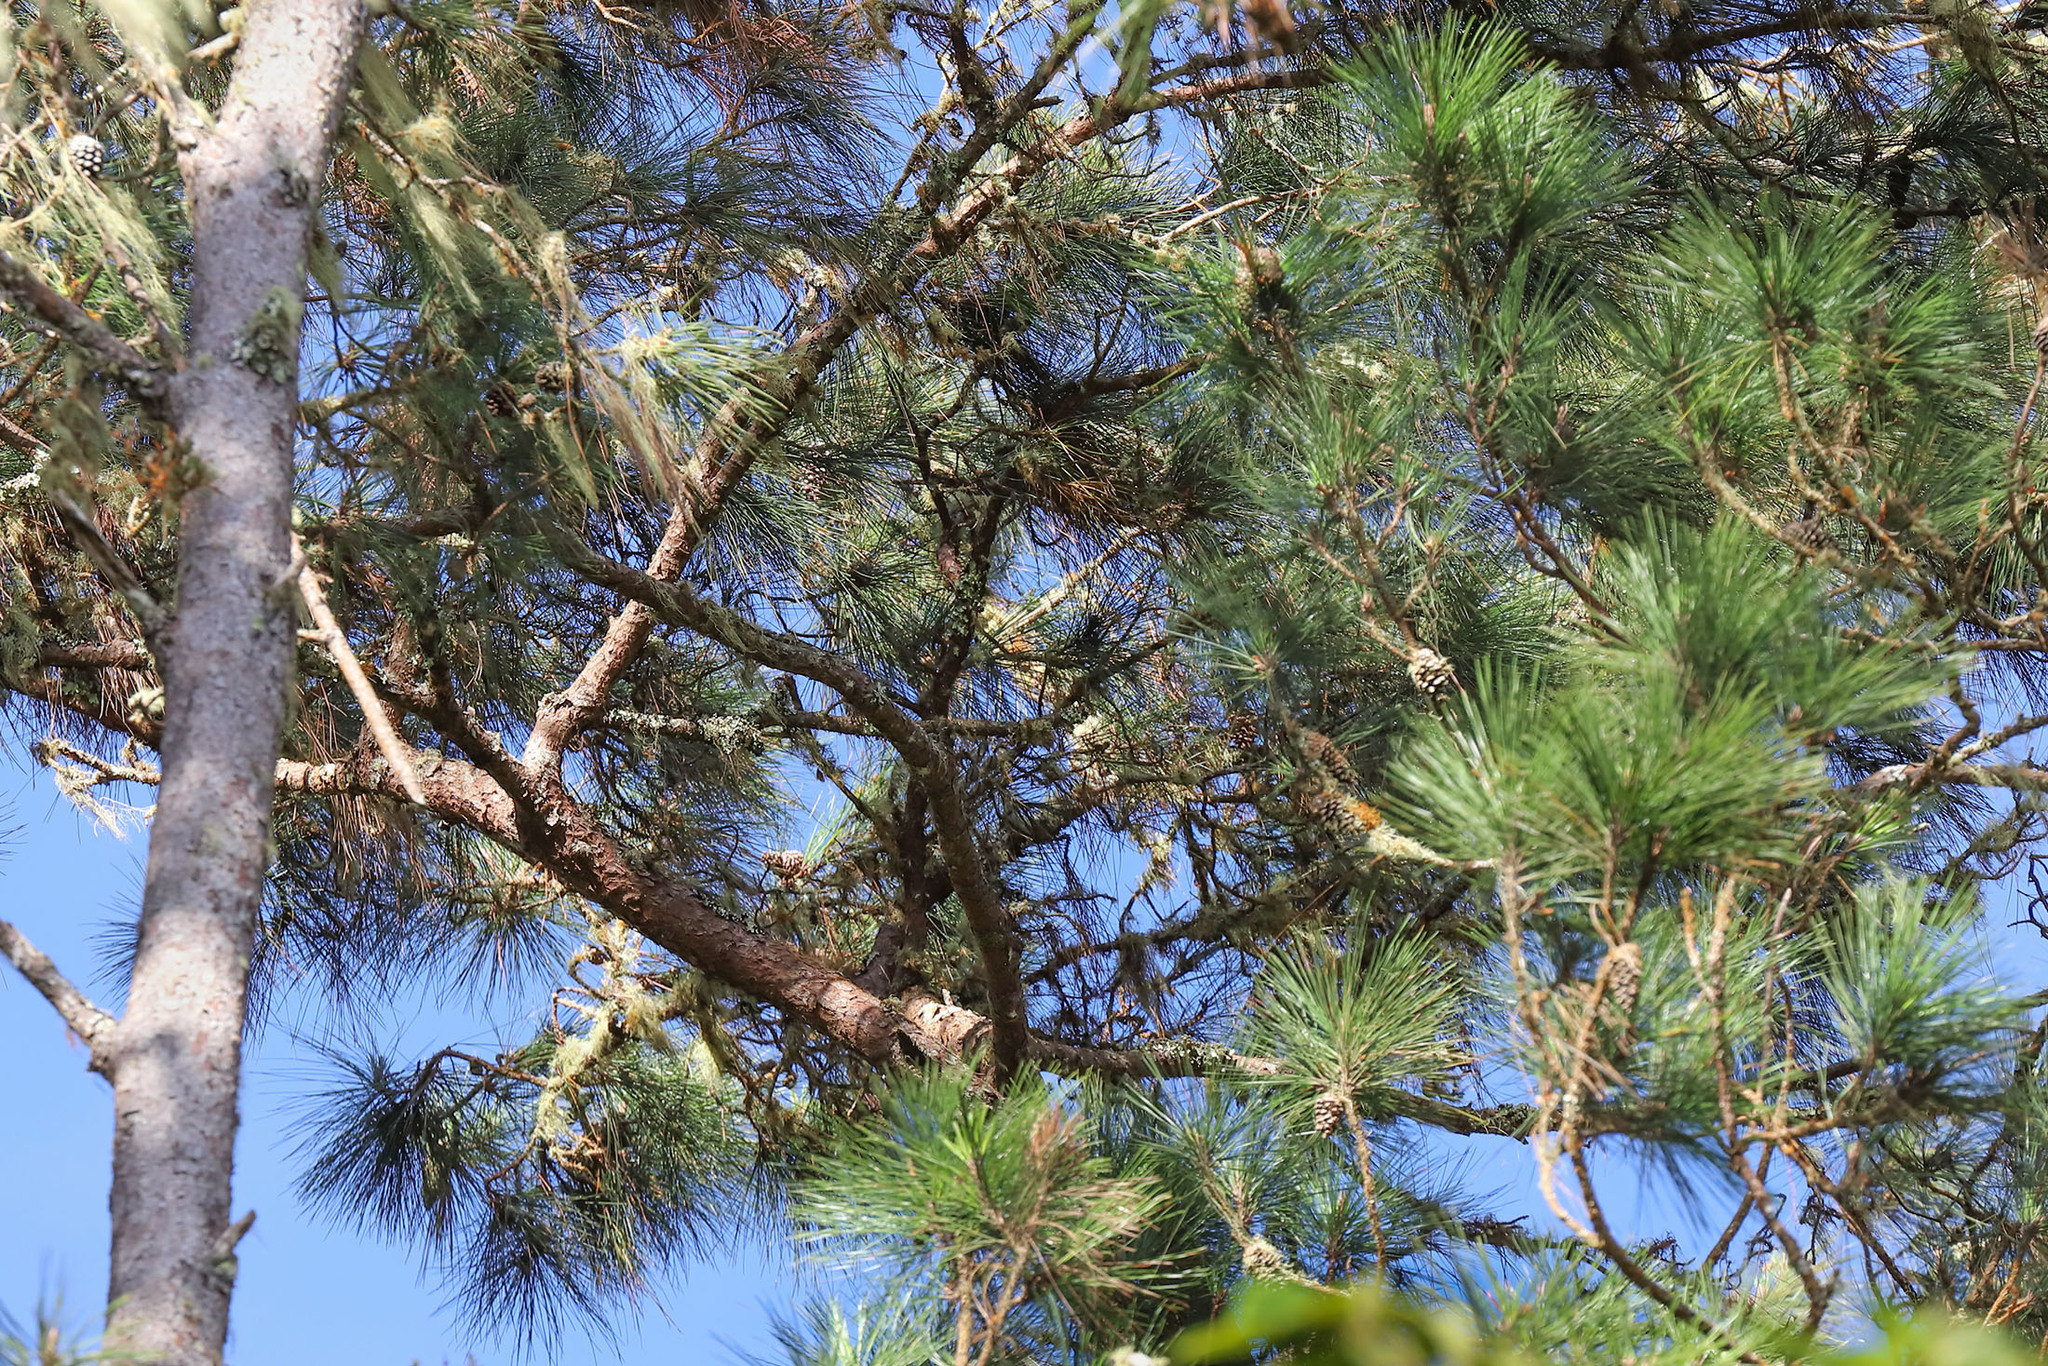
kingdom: Plantae
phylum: Tracheophyta
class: Pinopsida
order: Pinales
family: Pinaceae
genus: Pinus
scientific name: Pinus occidentalis
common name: Hispaniolan pine
